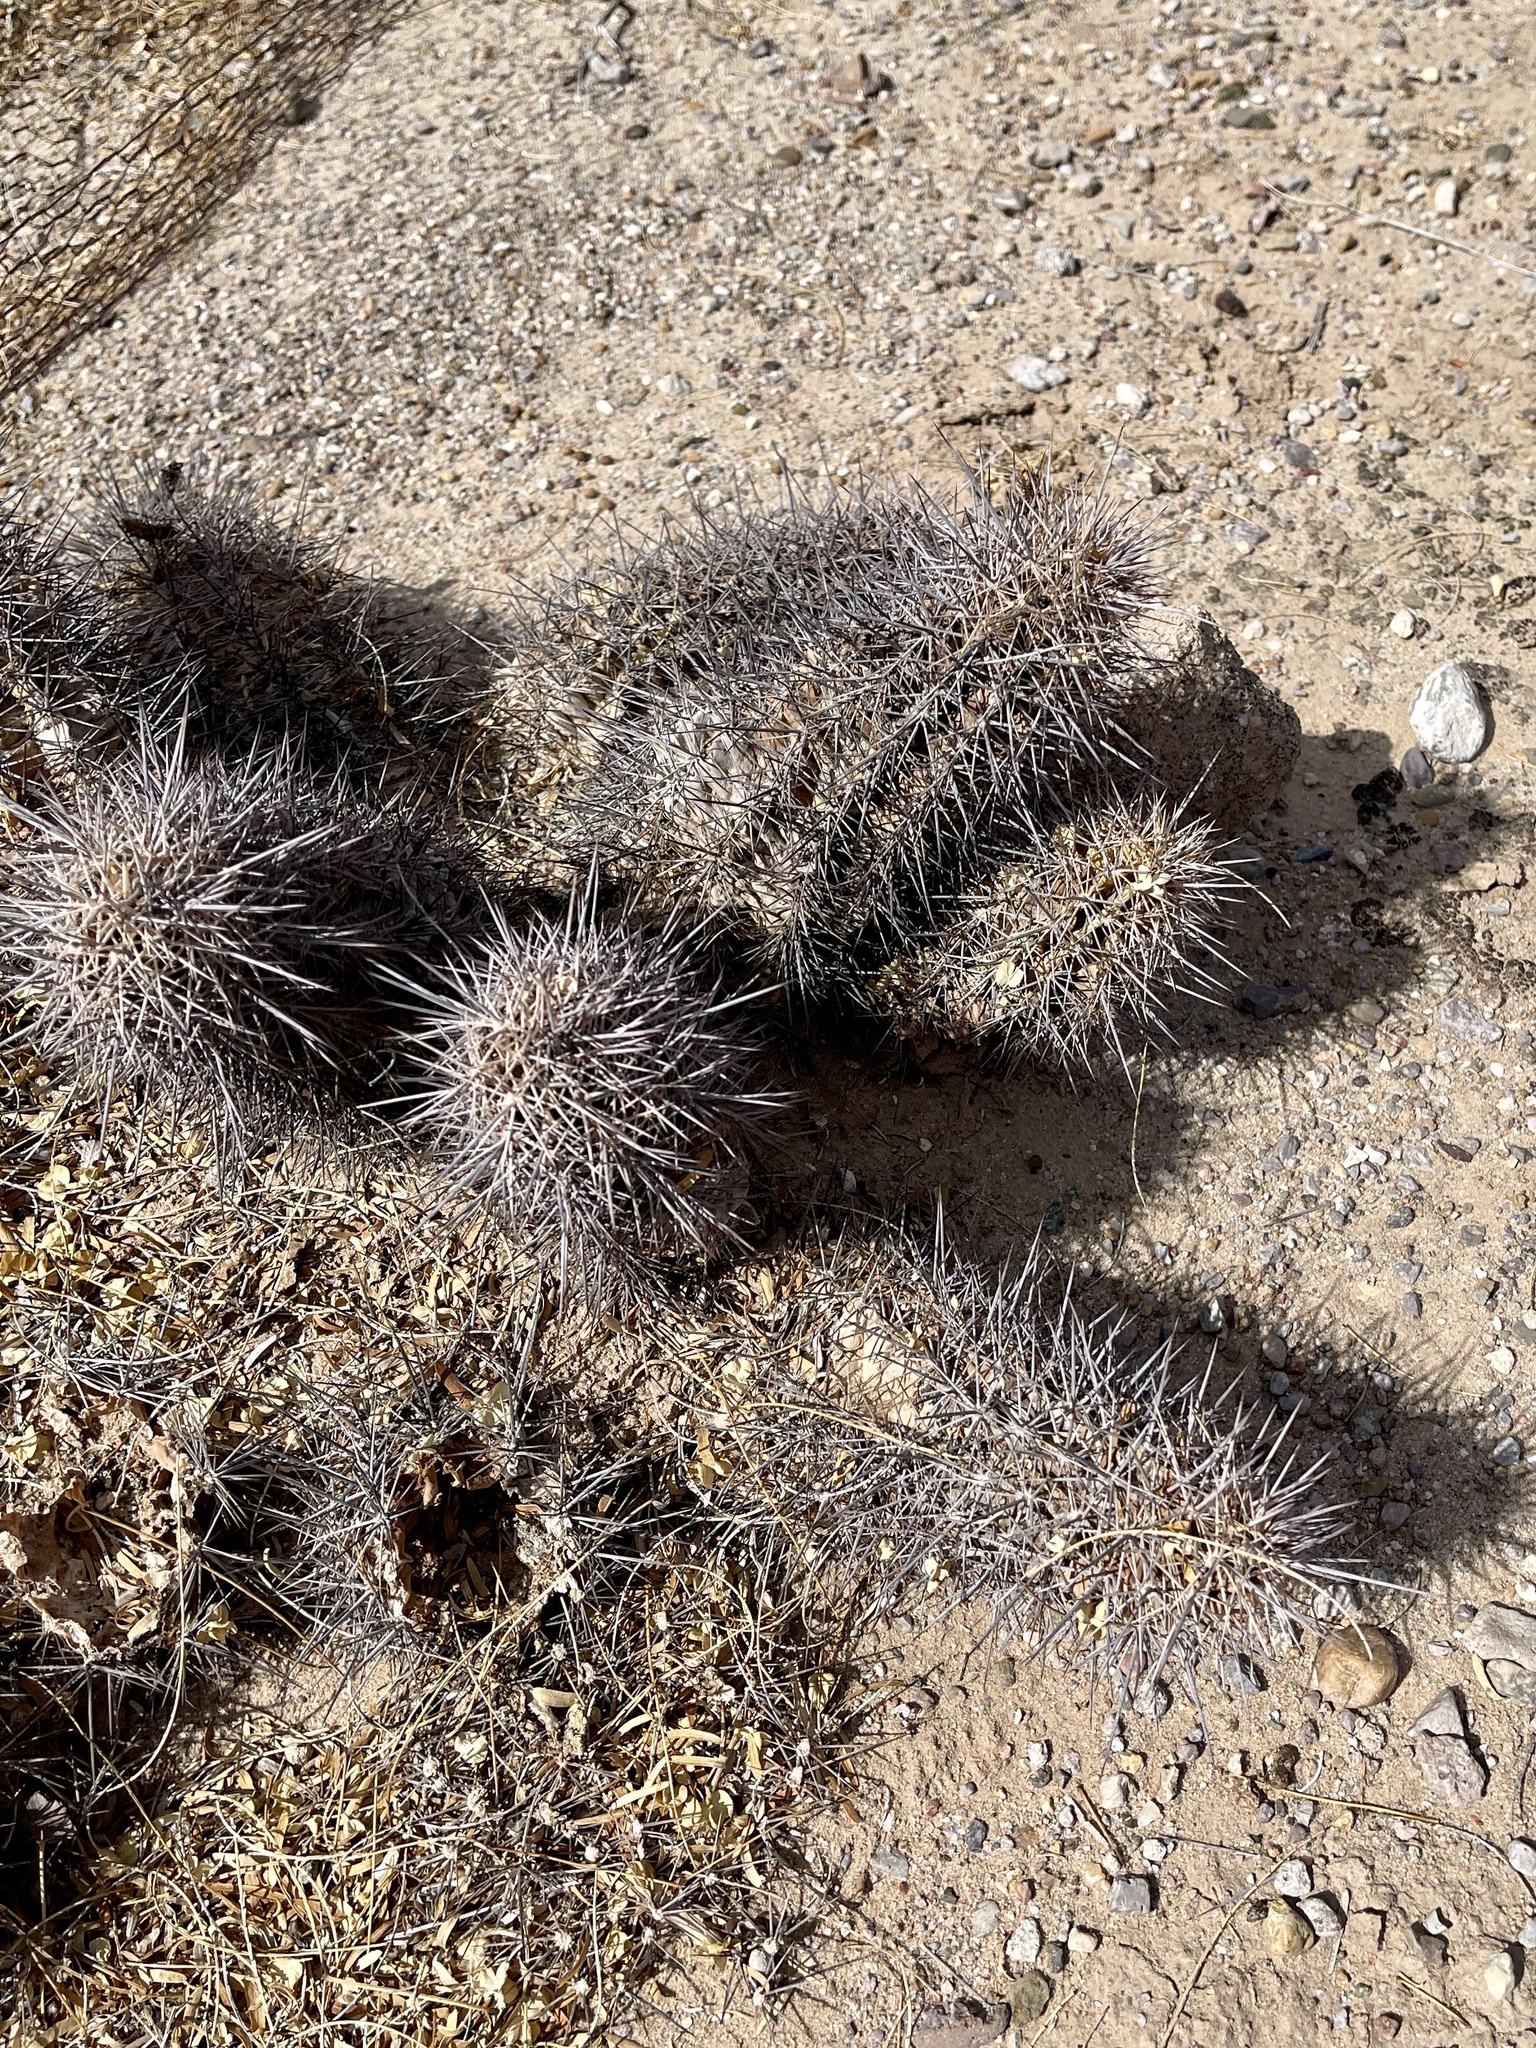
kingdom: Plantae
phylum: Tracheophyta
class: Magnoliopsida
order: Caryophyllales
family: Cactaceae
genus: Echinocereus
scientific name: Echinocereus coccineus
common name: Scarlet hedgehog cactus
